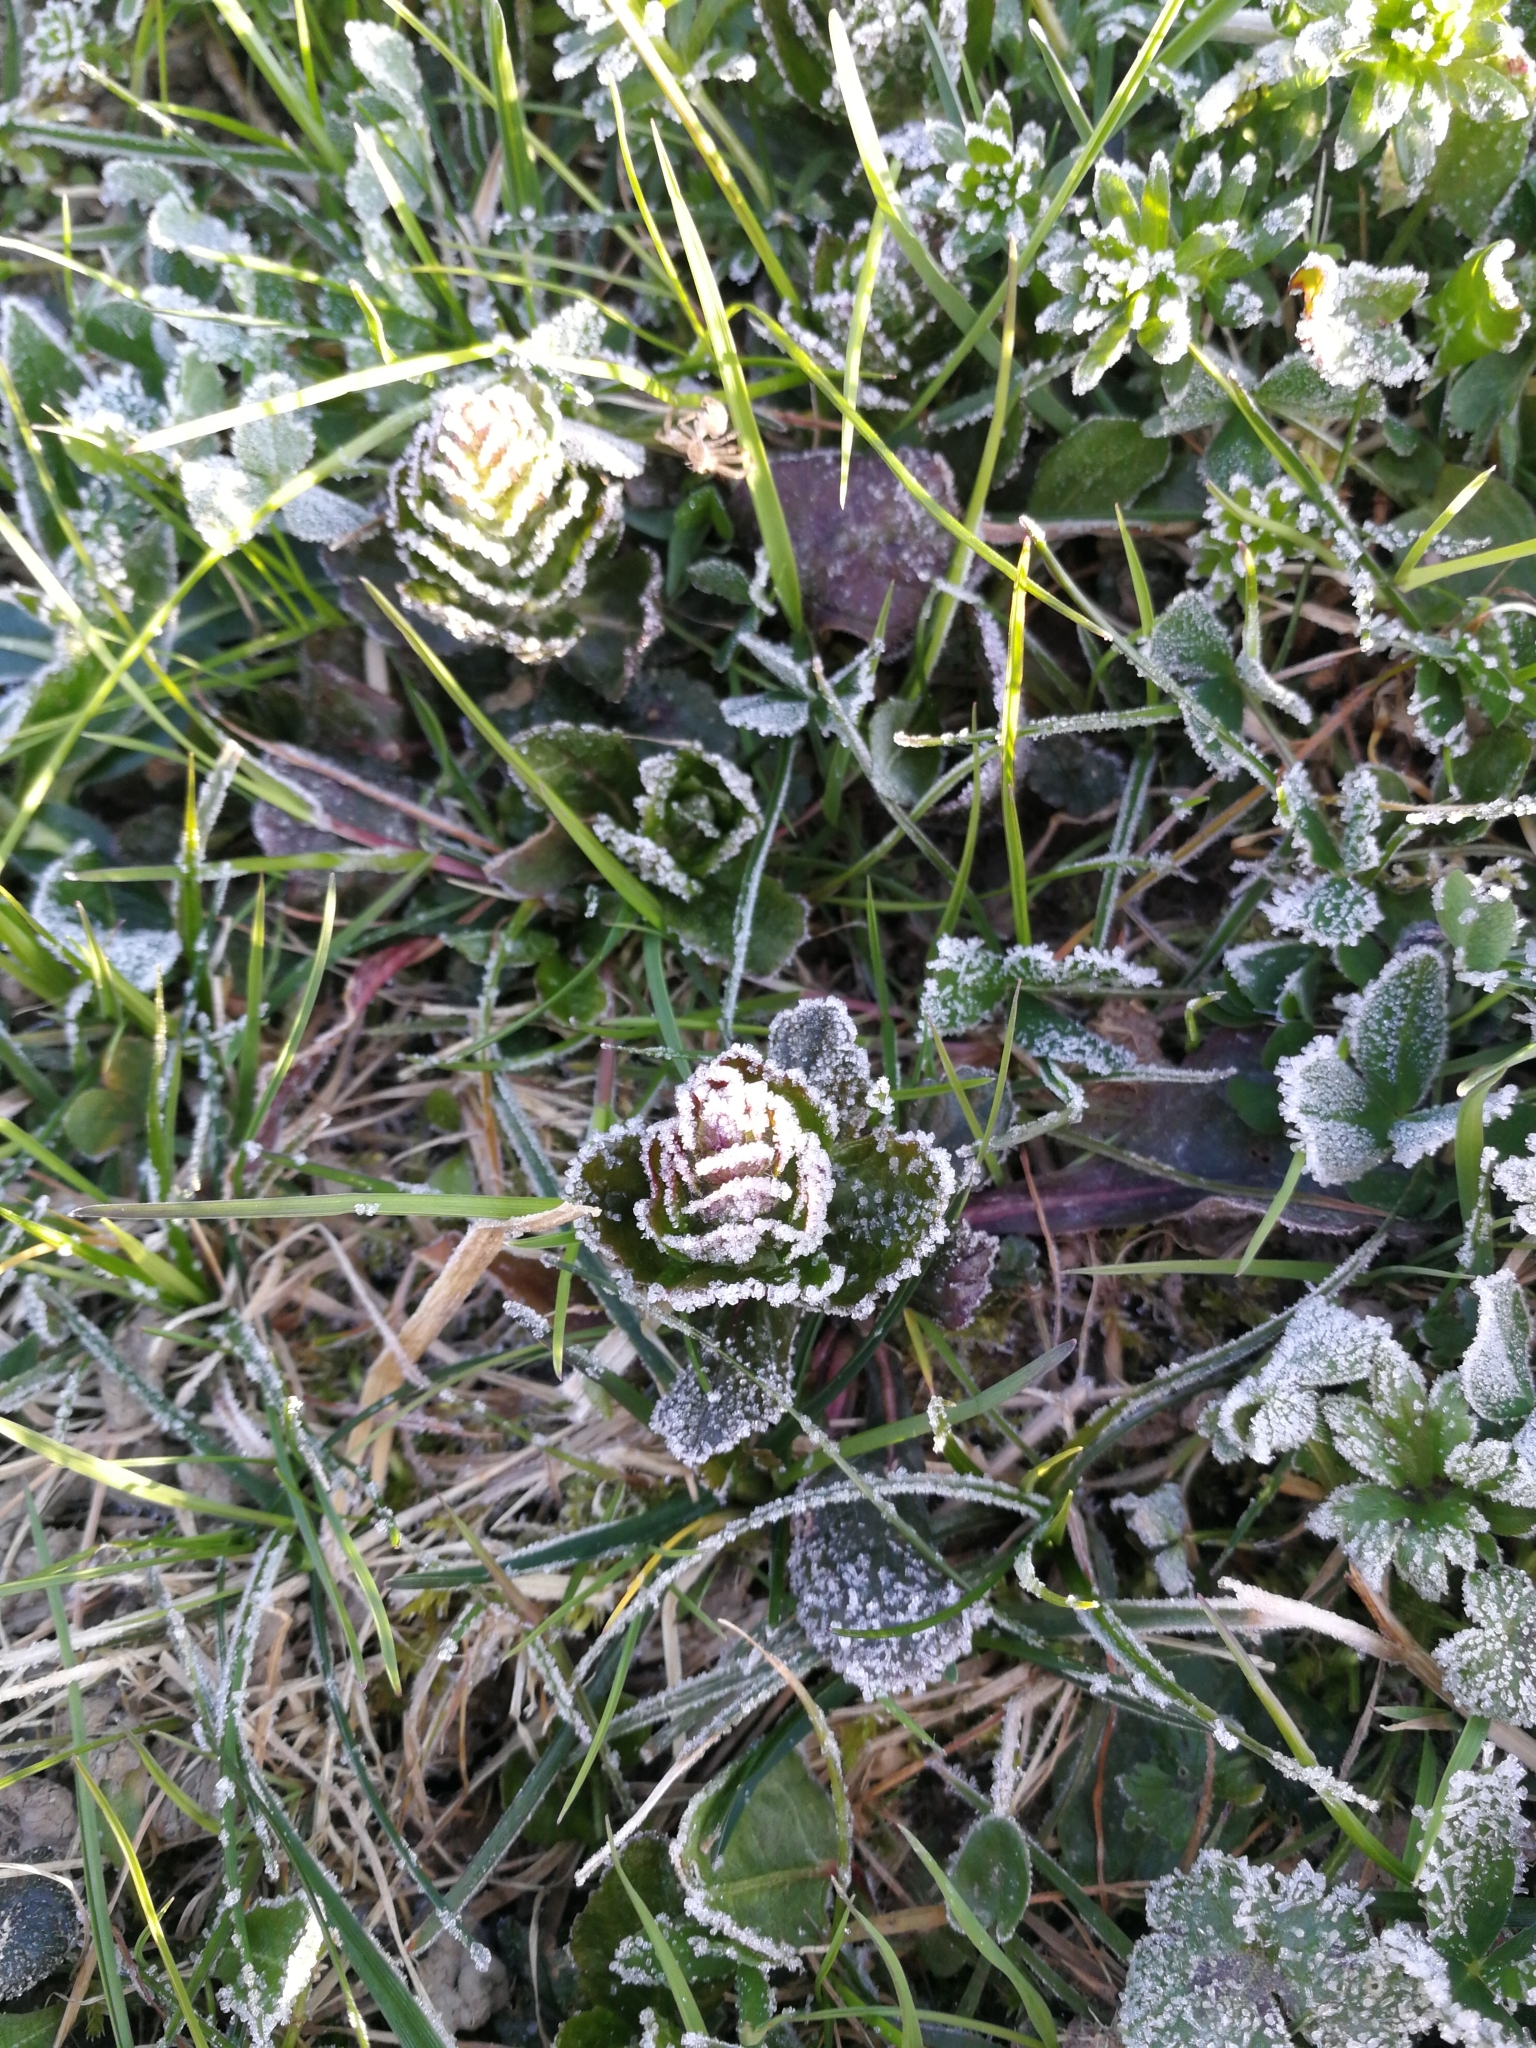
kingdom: Plantae
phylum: Tracheophyta
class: Magnoliopsida
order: Lamiales
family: Lamiaceae
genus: Ajuga
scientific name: Ajuga reptans
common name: Bugle
